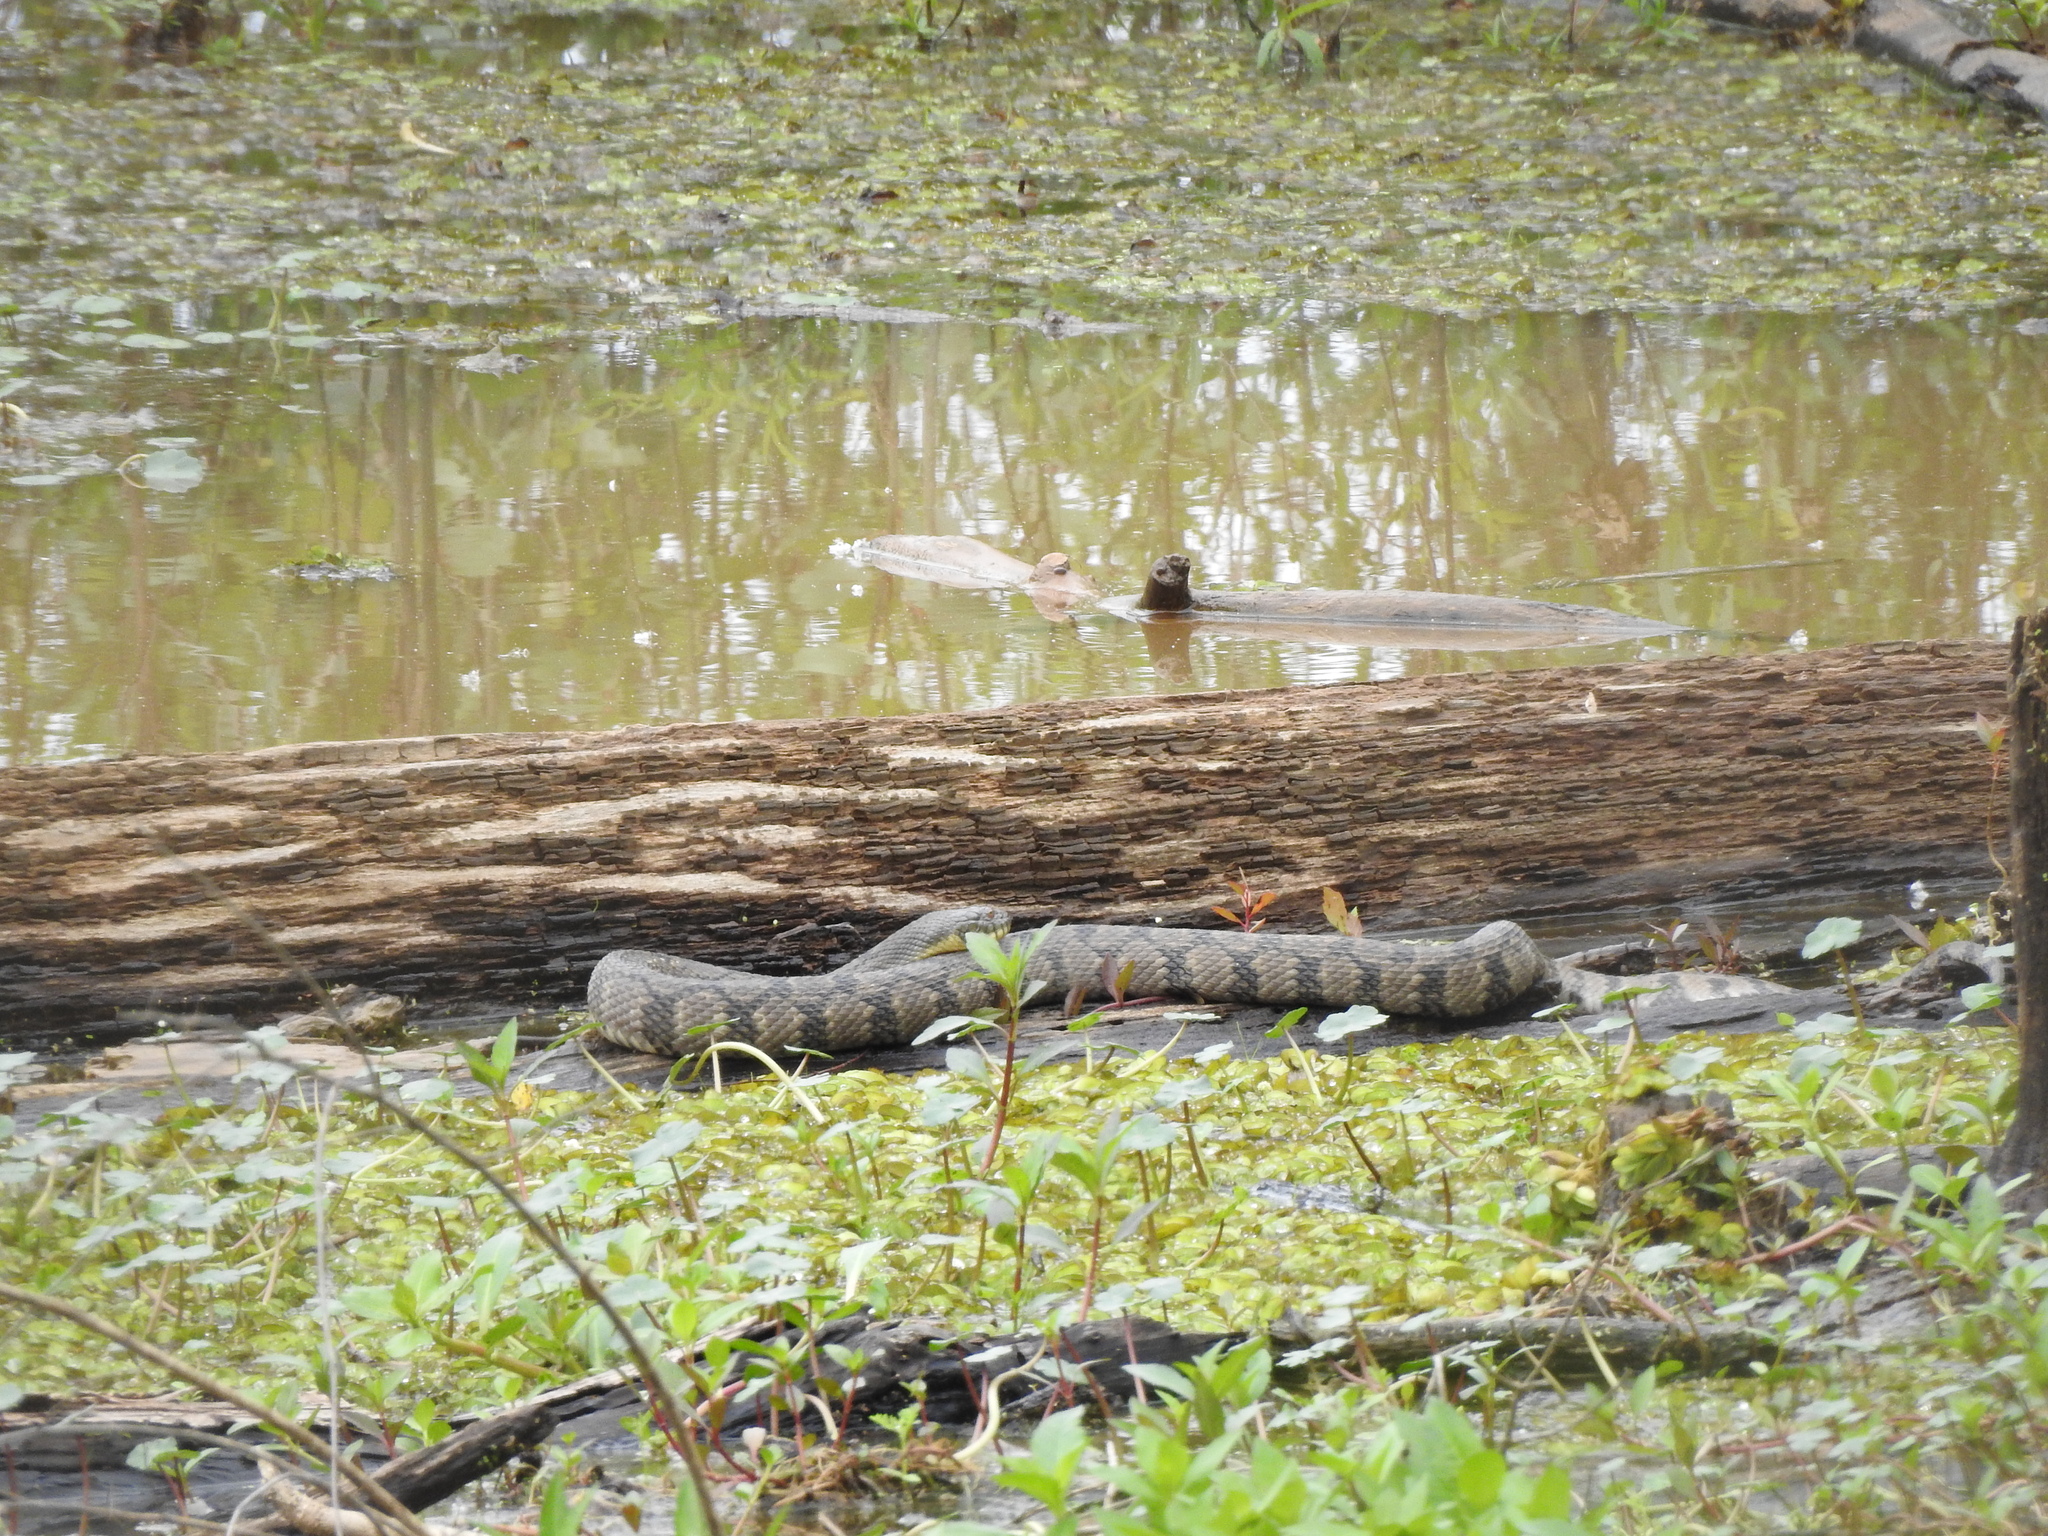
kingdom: Animalia
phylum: Chordata
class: Squamata
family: Colubridae
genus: Nerodia
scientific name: Nerodia rhombifer
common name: Diamondback water snake
